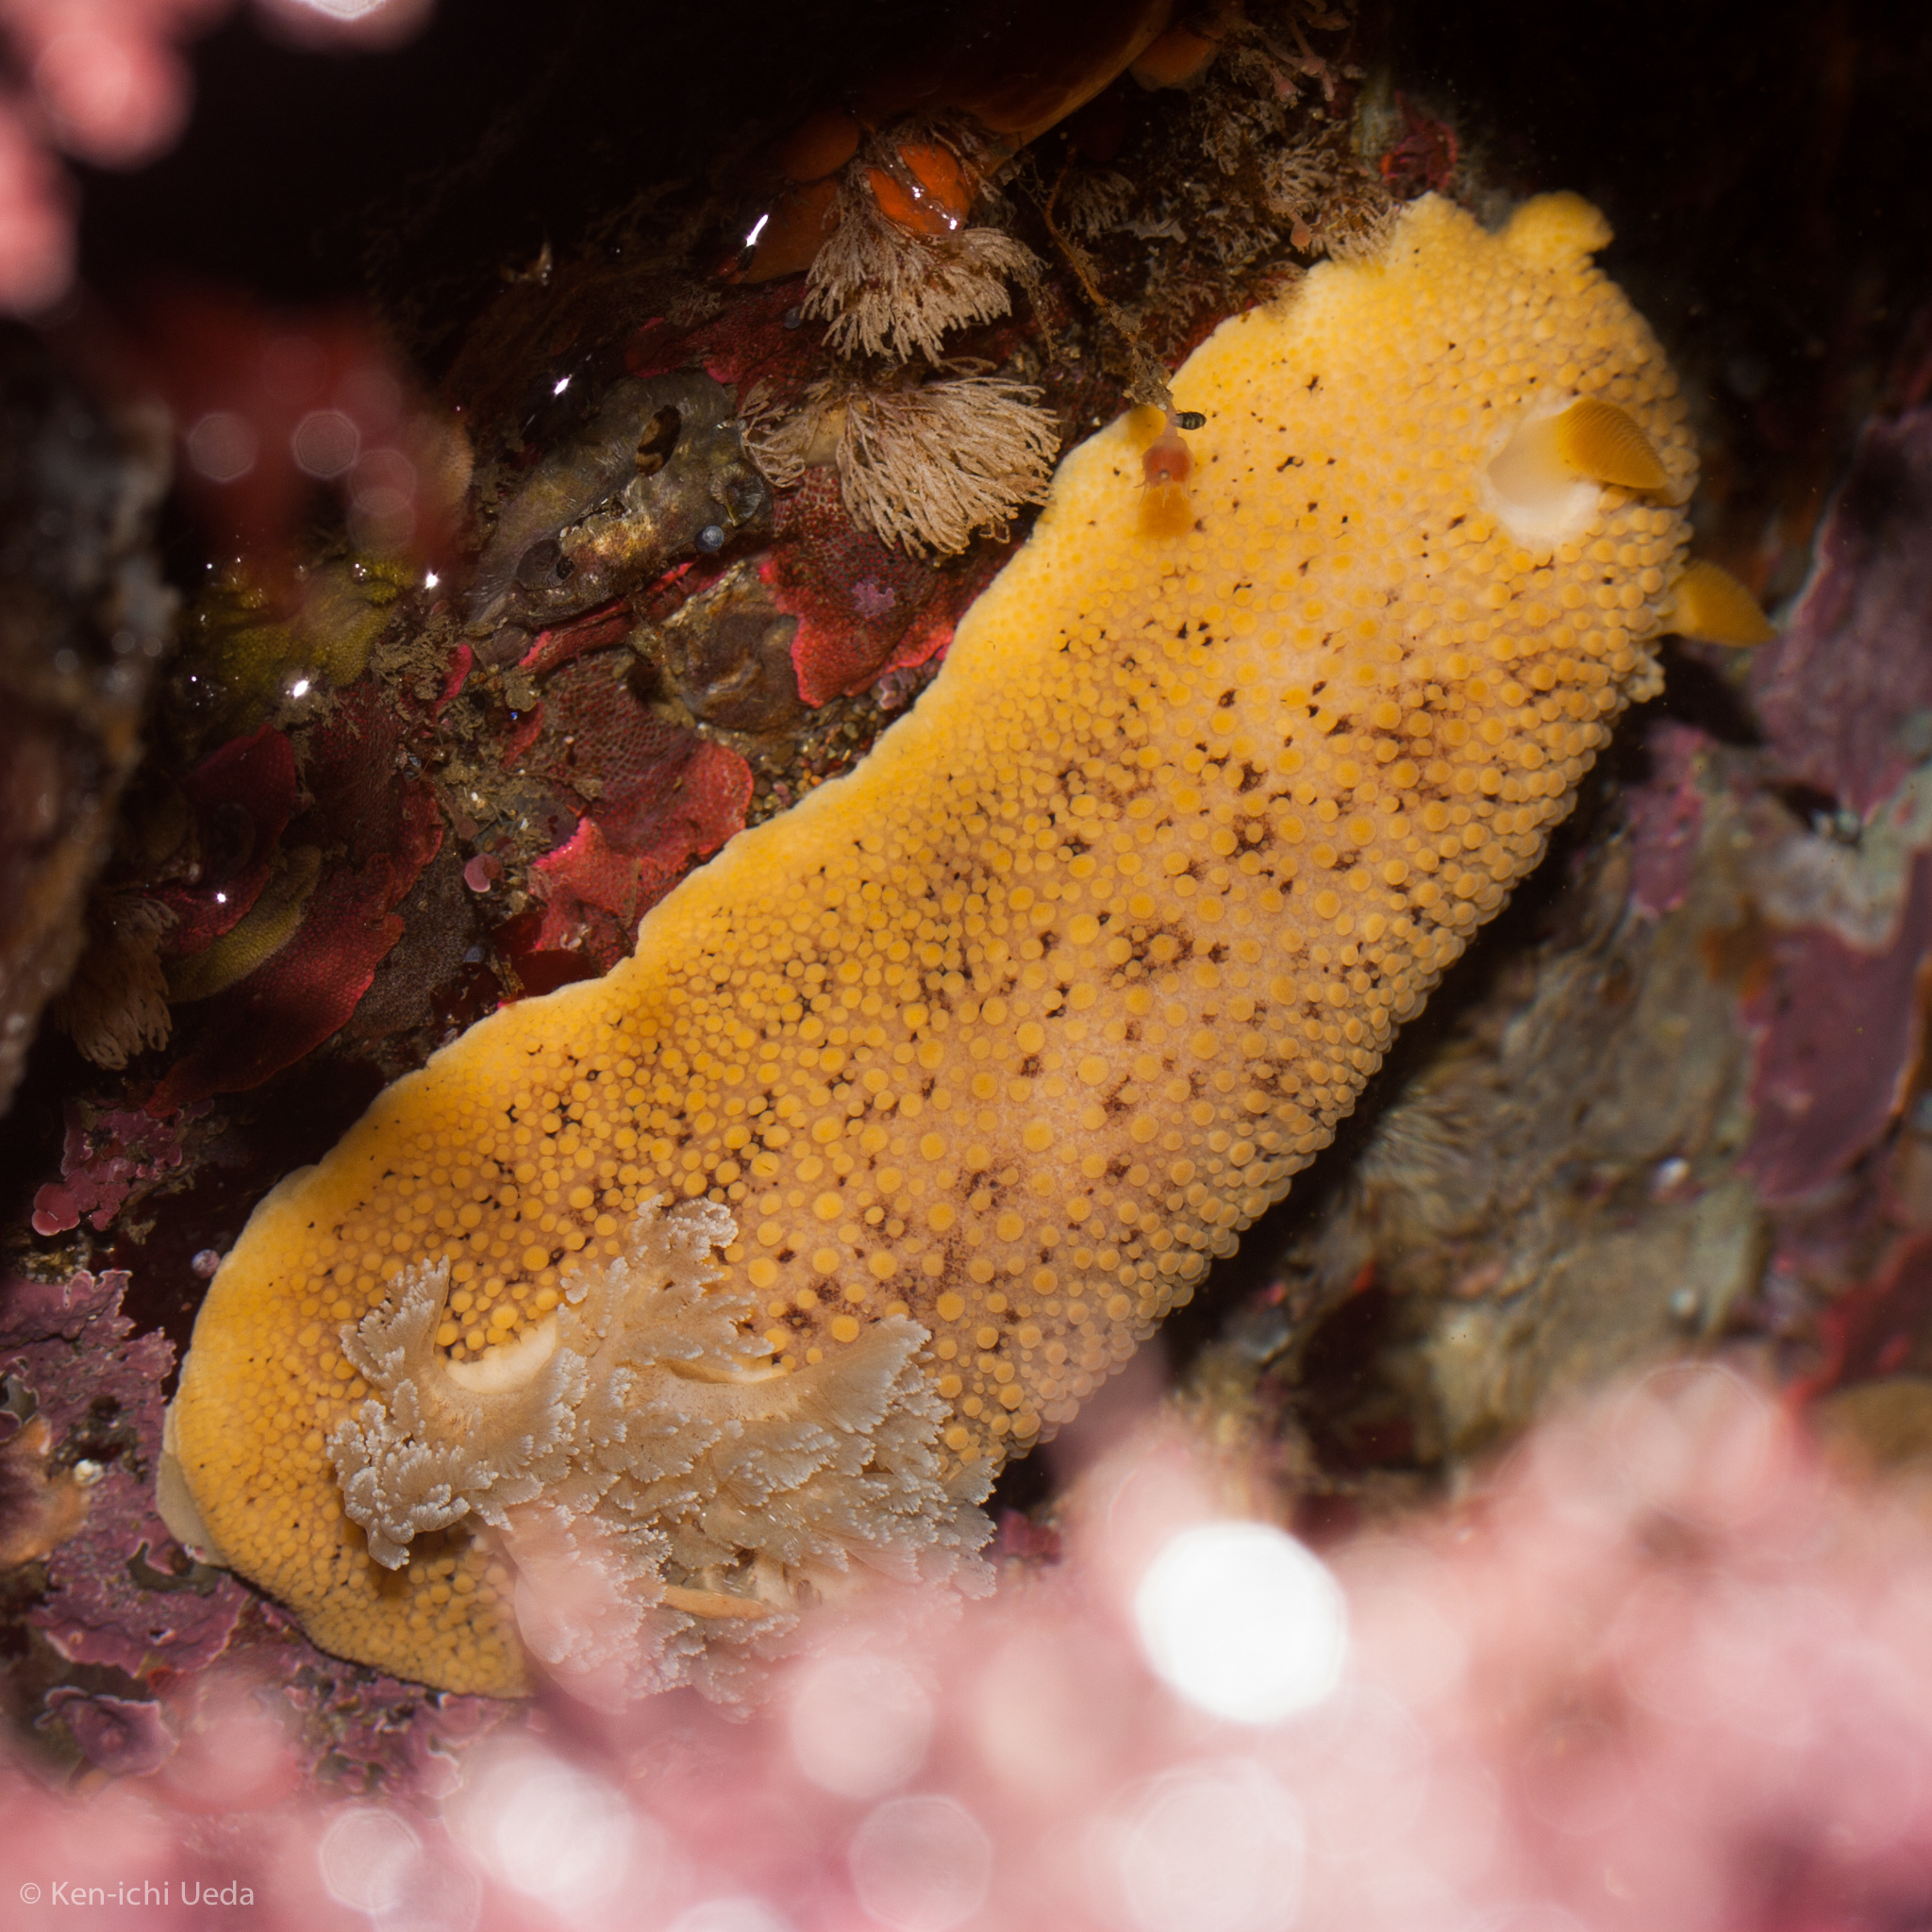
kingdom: Animalia
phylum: Mollusca
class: Gastropoda
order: Nudibranchia
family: Discodorididae
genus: Peltodoris
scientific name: Peltodoris nobilis
